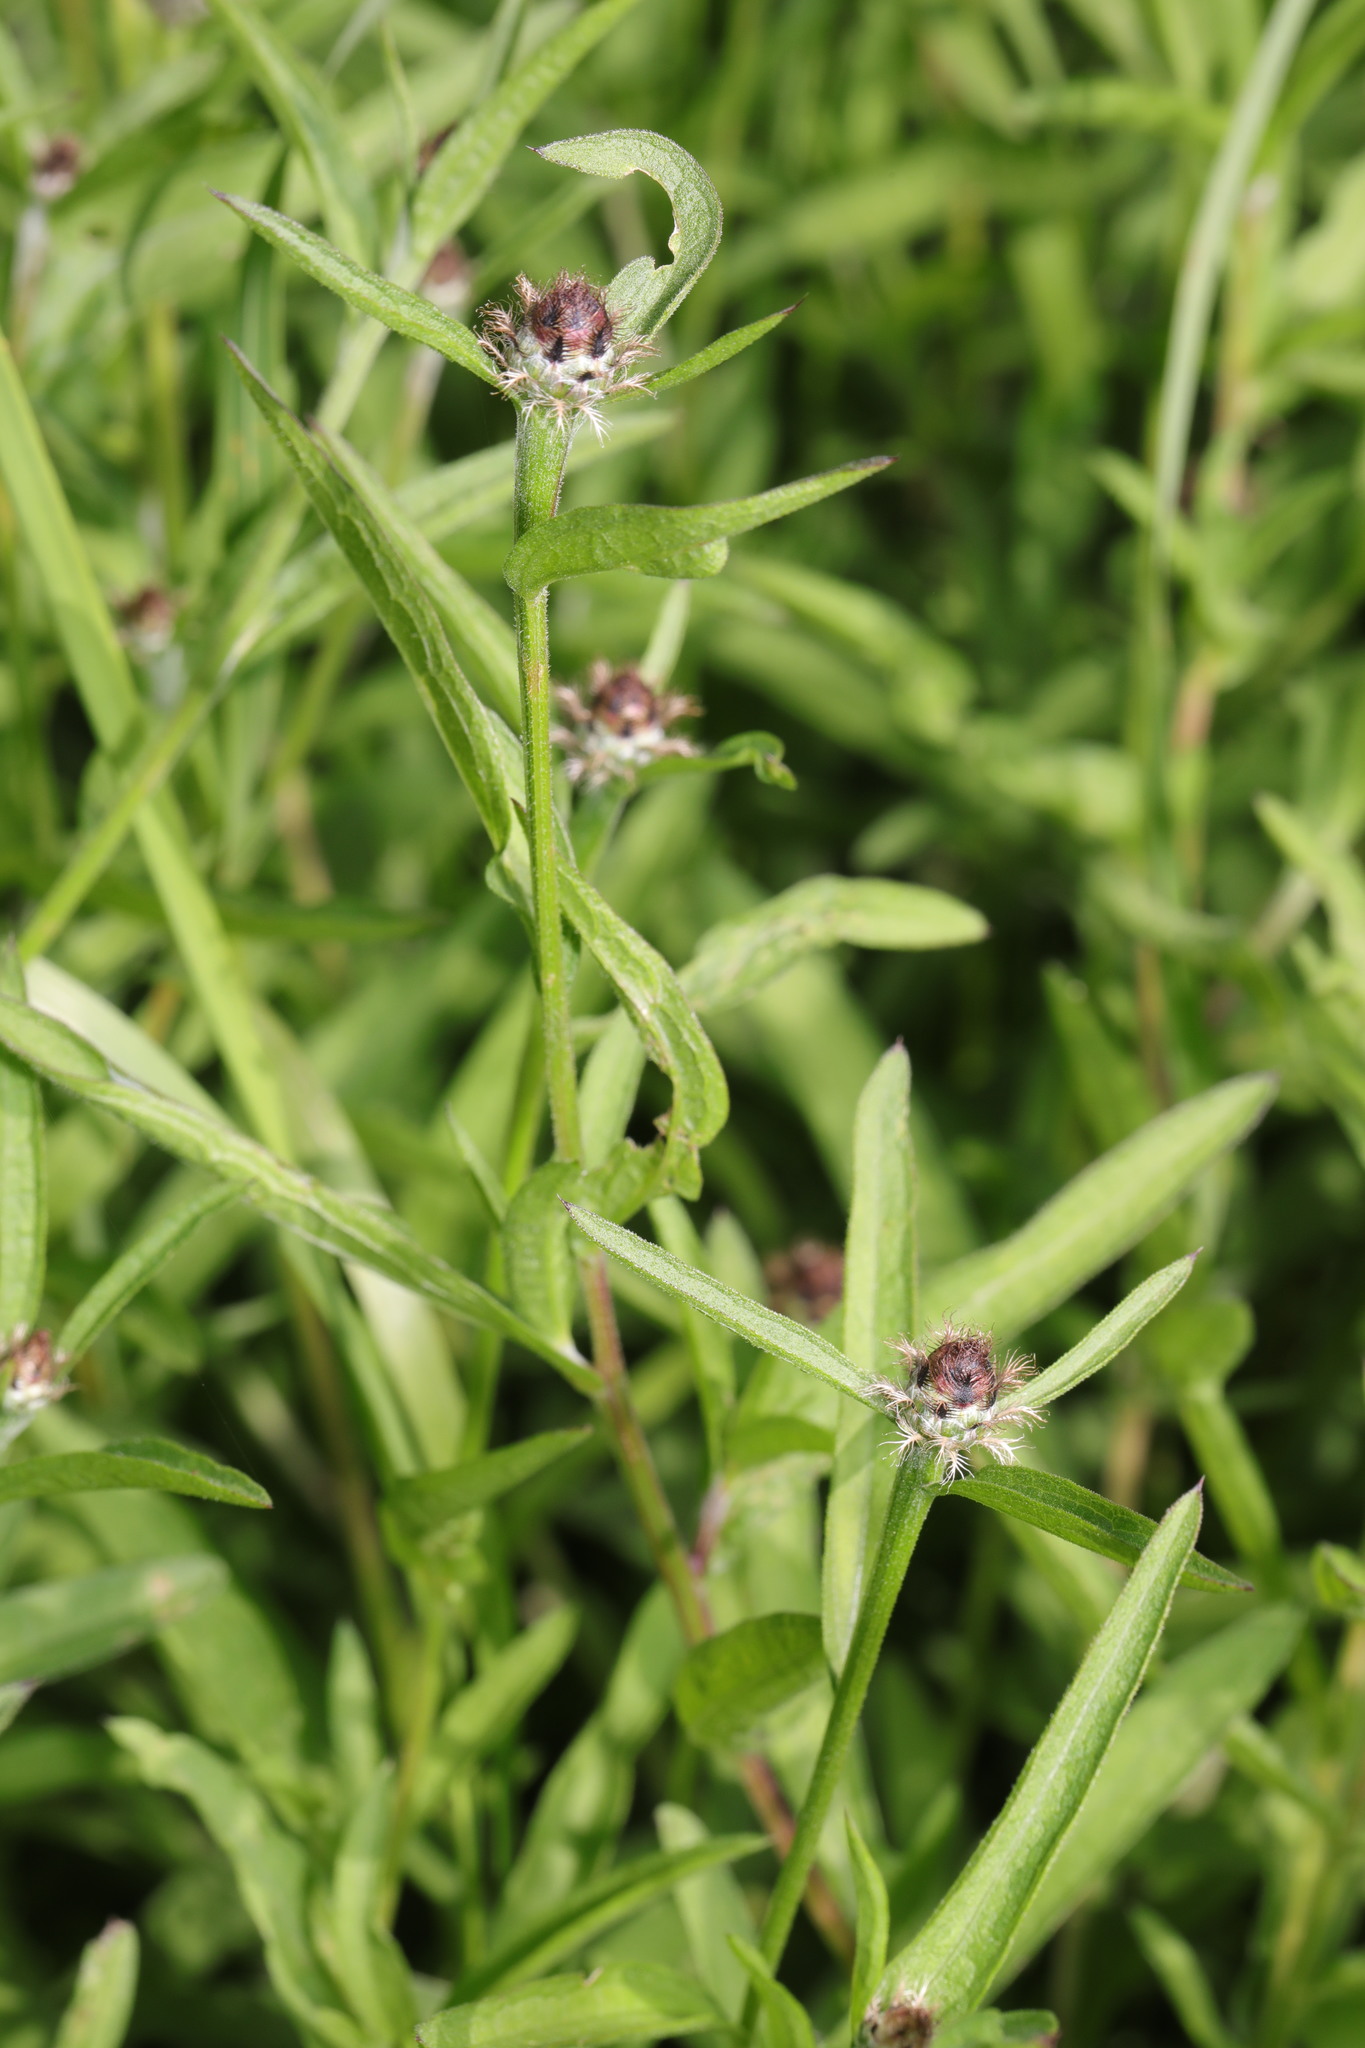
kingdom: Plantae
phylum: Tracheophyta
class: Magnoliopsida
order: Asterales
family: Asteraceae
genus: Centaurea
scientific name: Centaurea nigra
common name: Lesser knapweed
